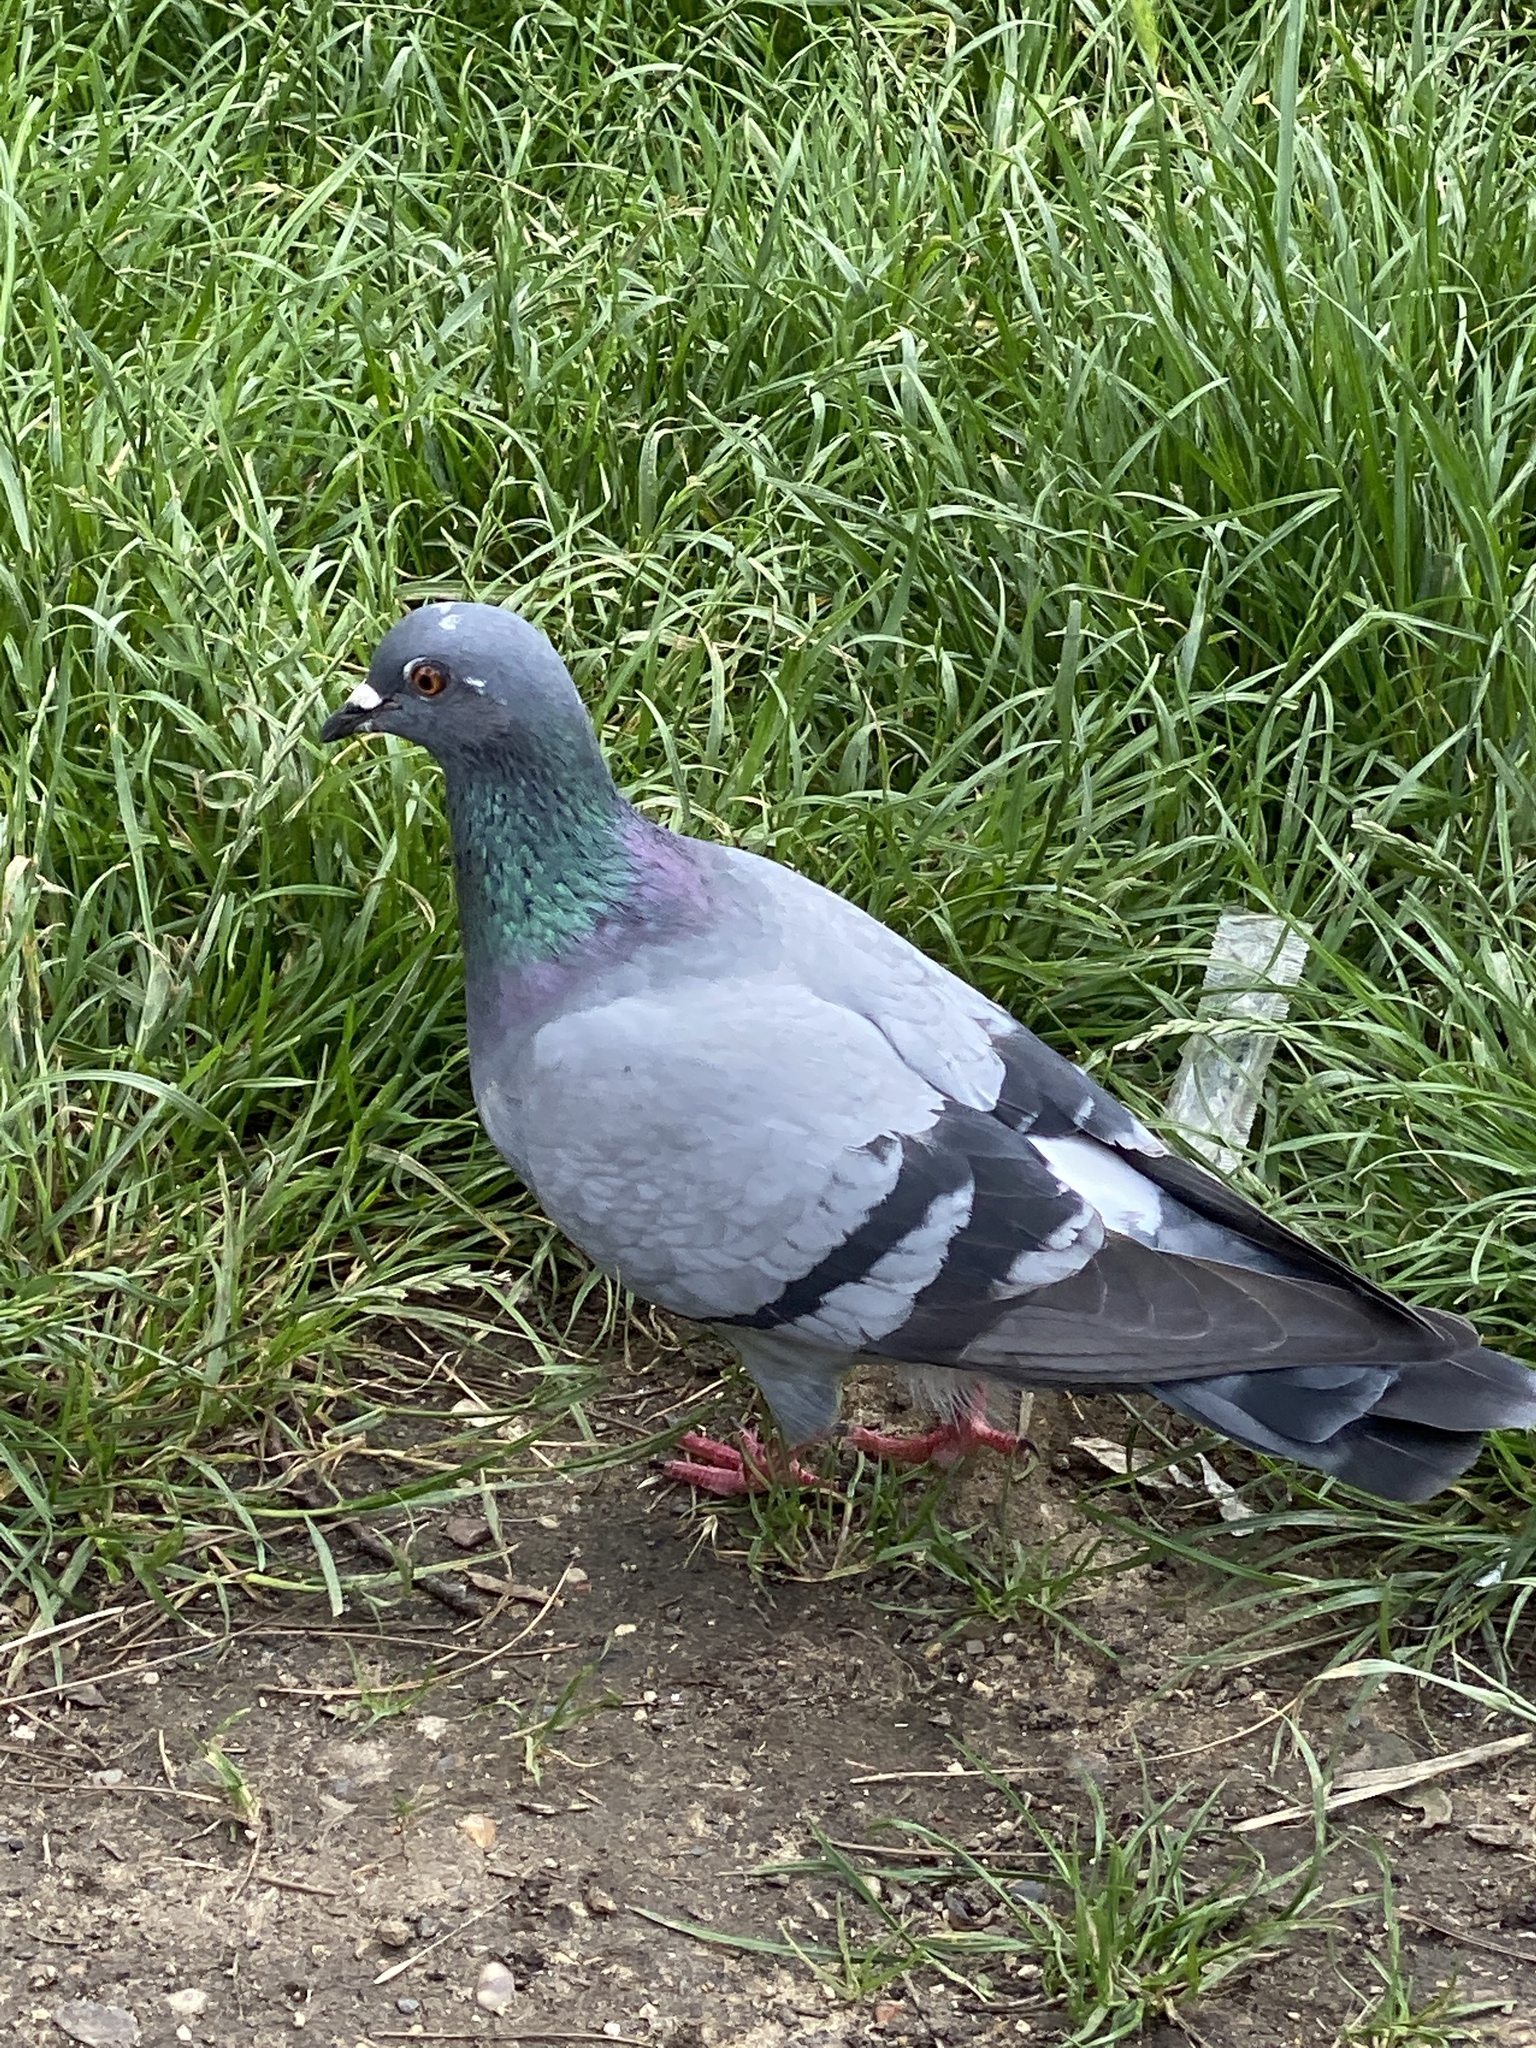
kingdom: Animalia
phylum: Chordata
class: Aves
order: Columbiformes
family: Columbidae
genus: Columba
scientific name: Columba livia
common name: Rock pigeon
